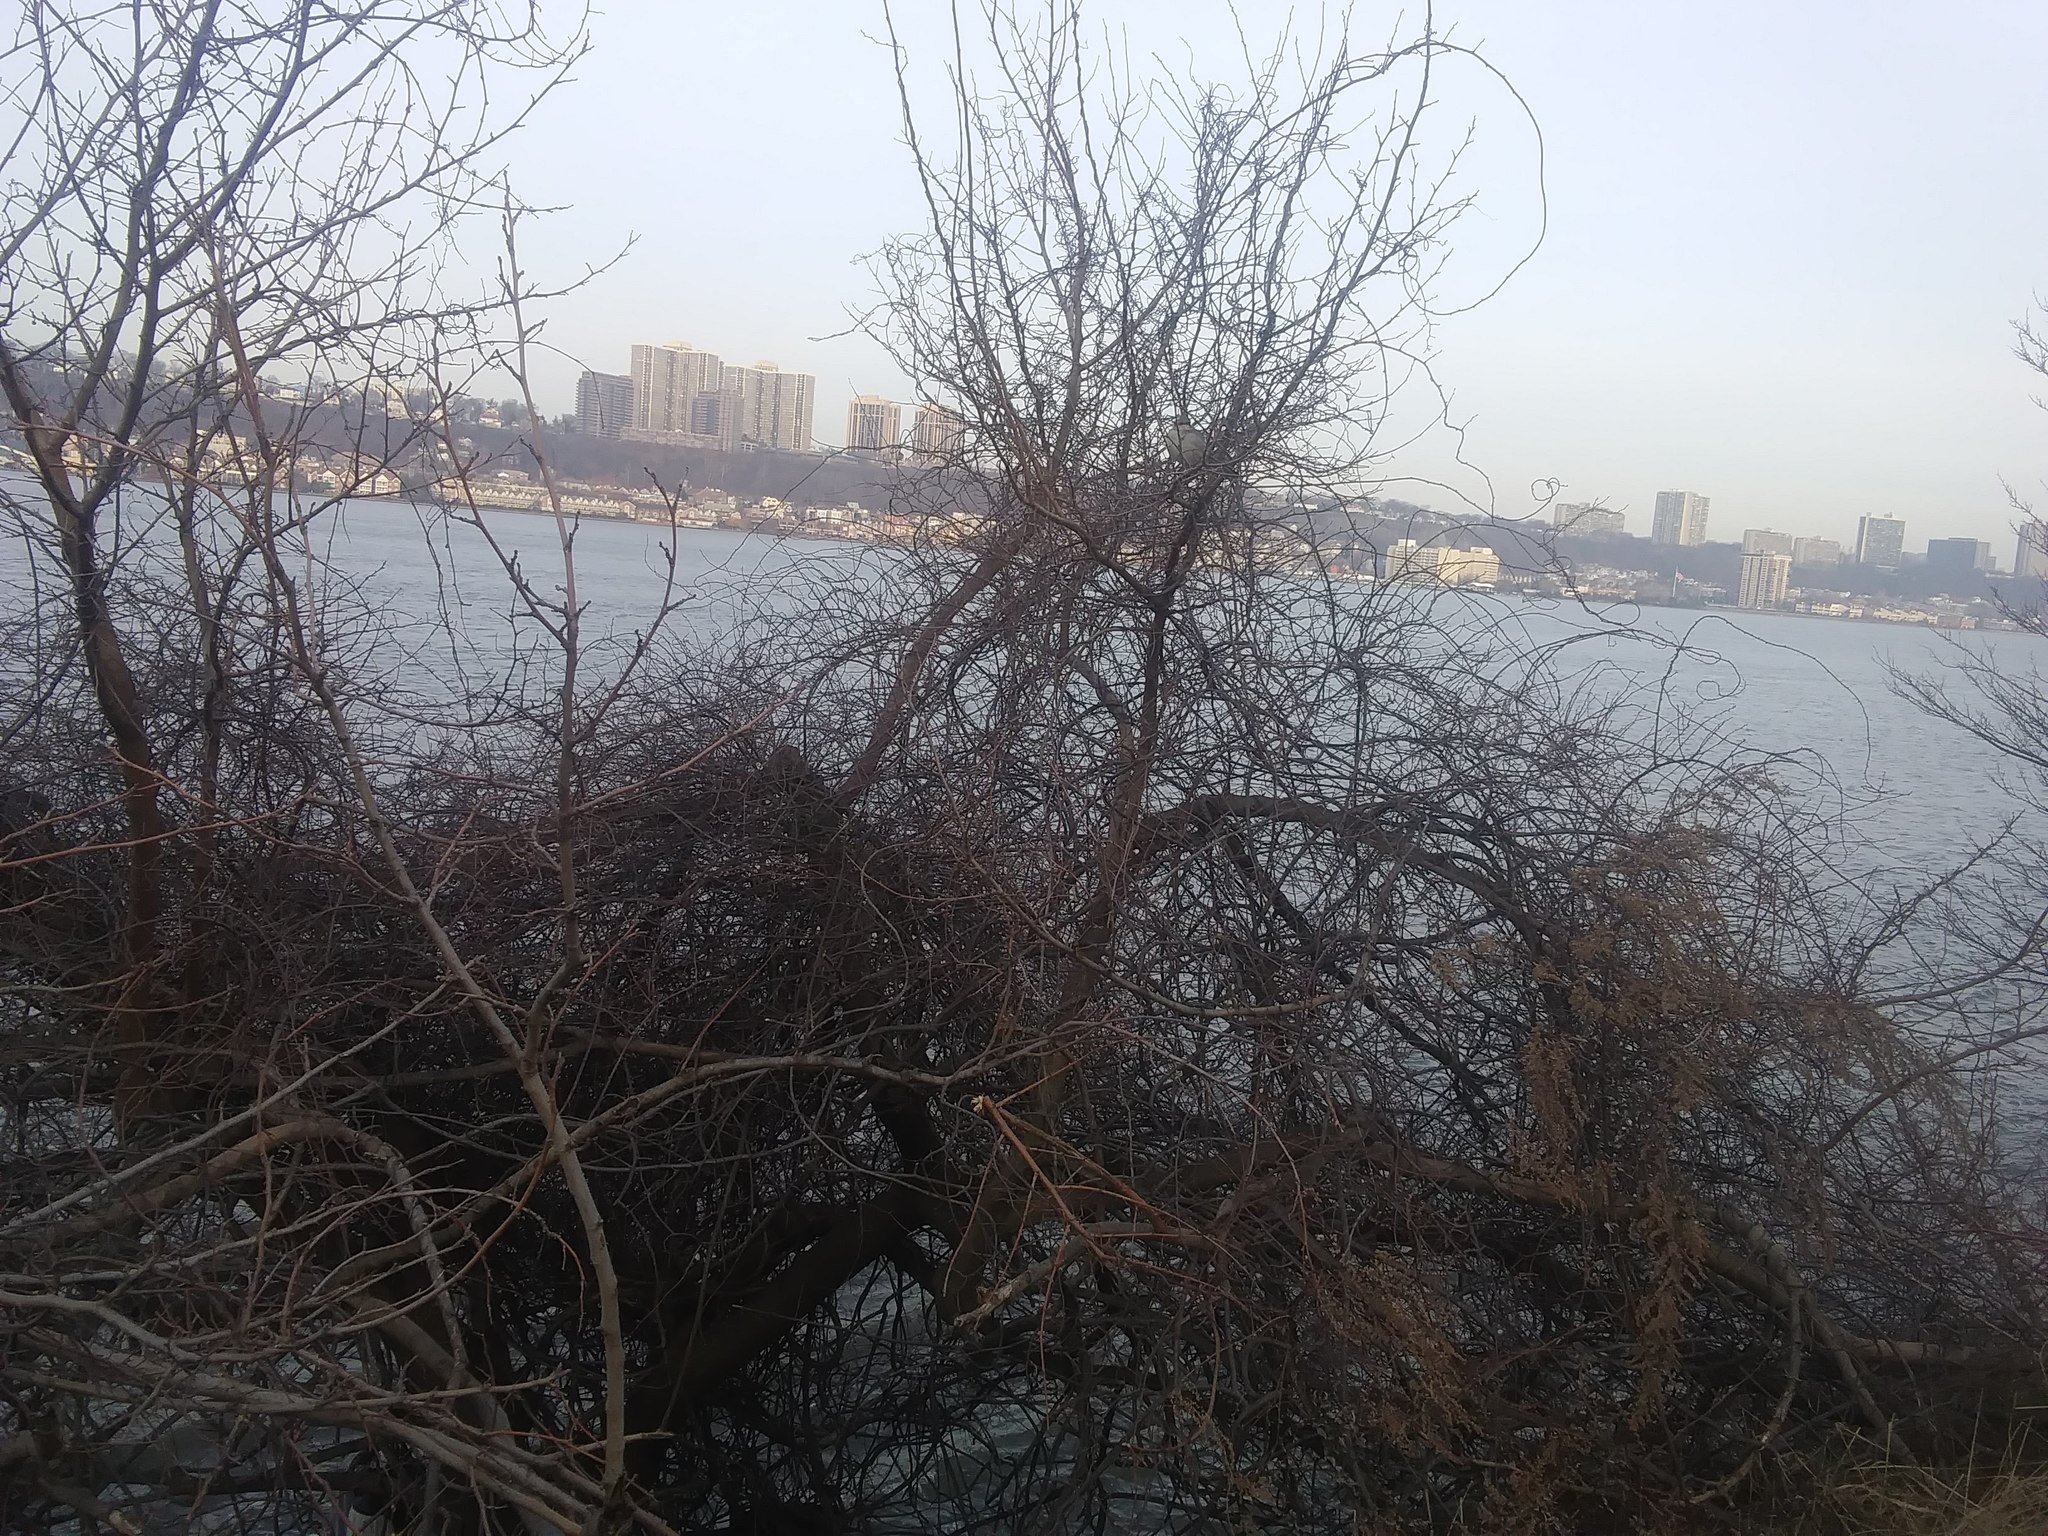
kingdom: Animalia
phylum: Chordata
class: Aves
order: Passeriformes
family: Mimidae
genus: Mimus
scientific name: Mimus polyglottos
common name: Northern mockingbird
